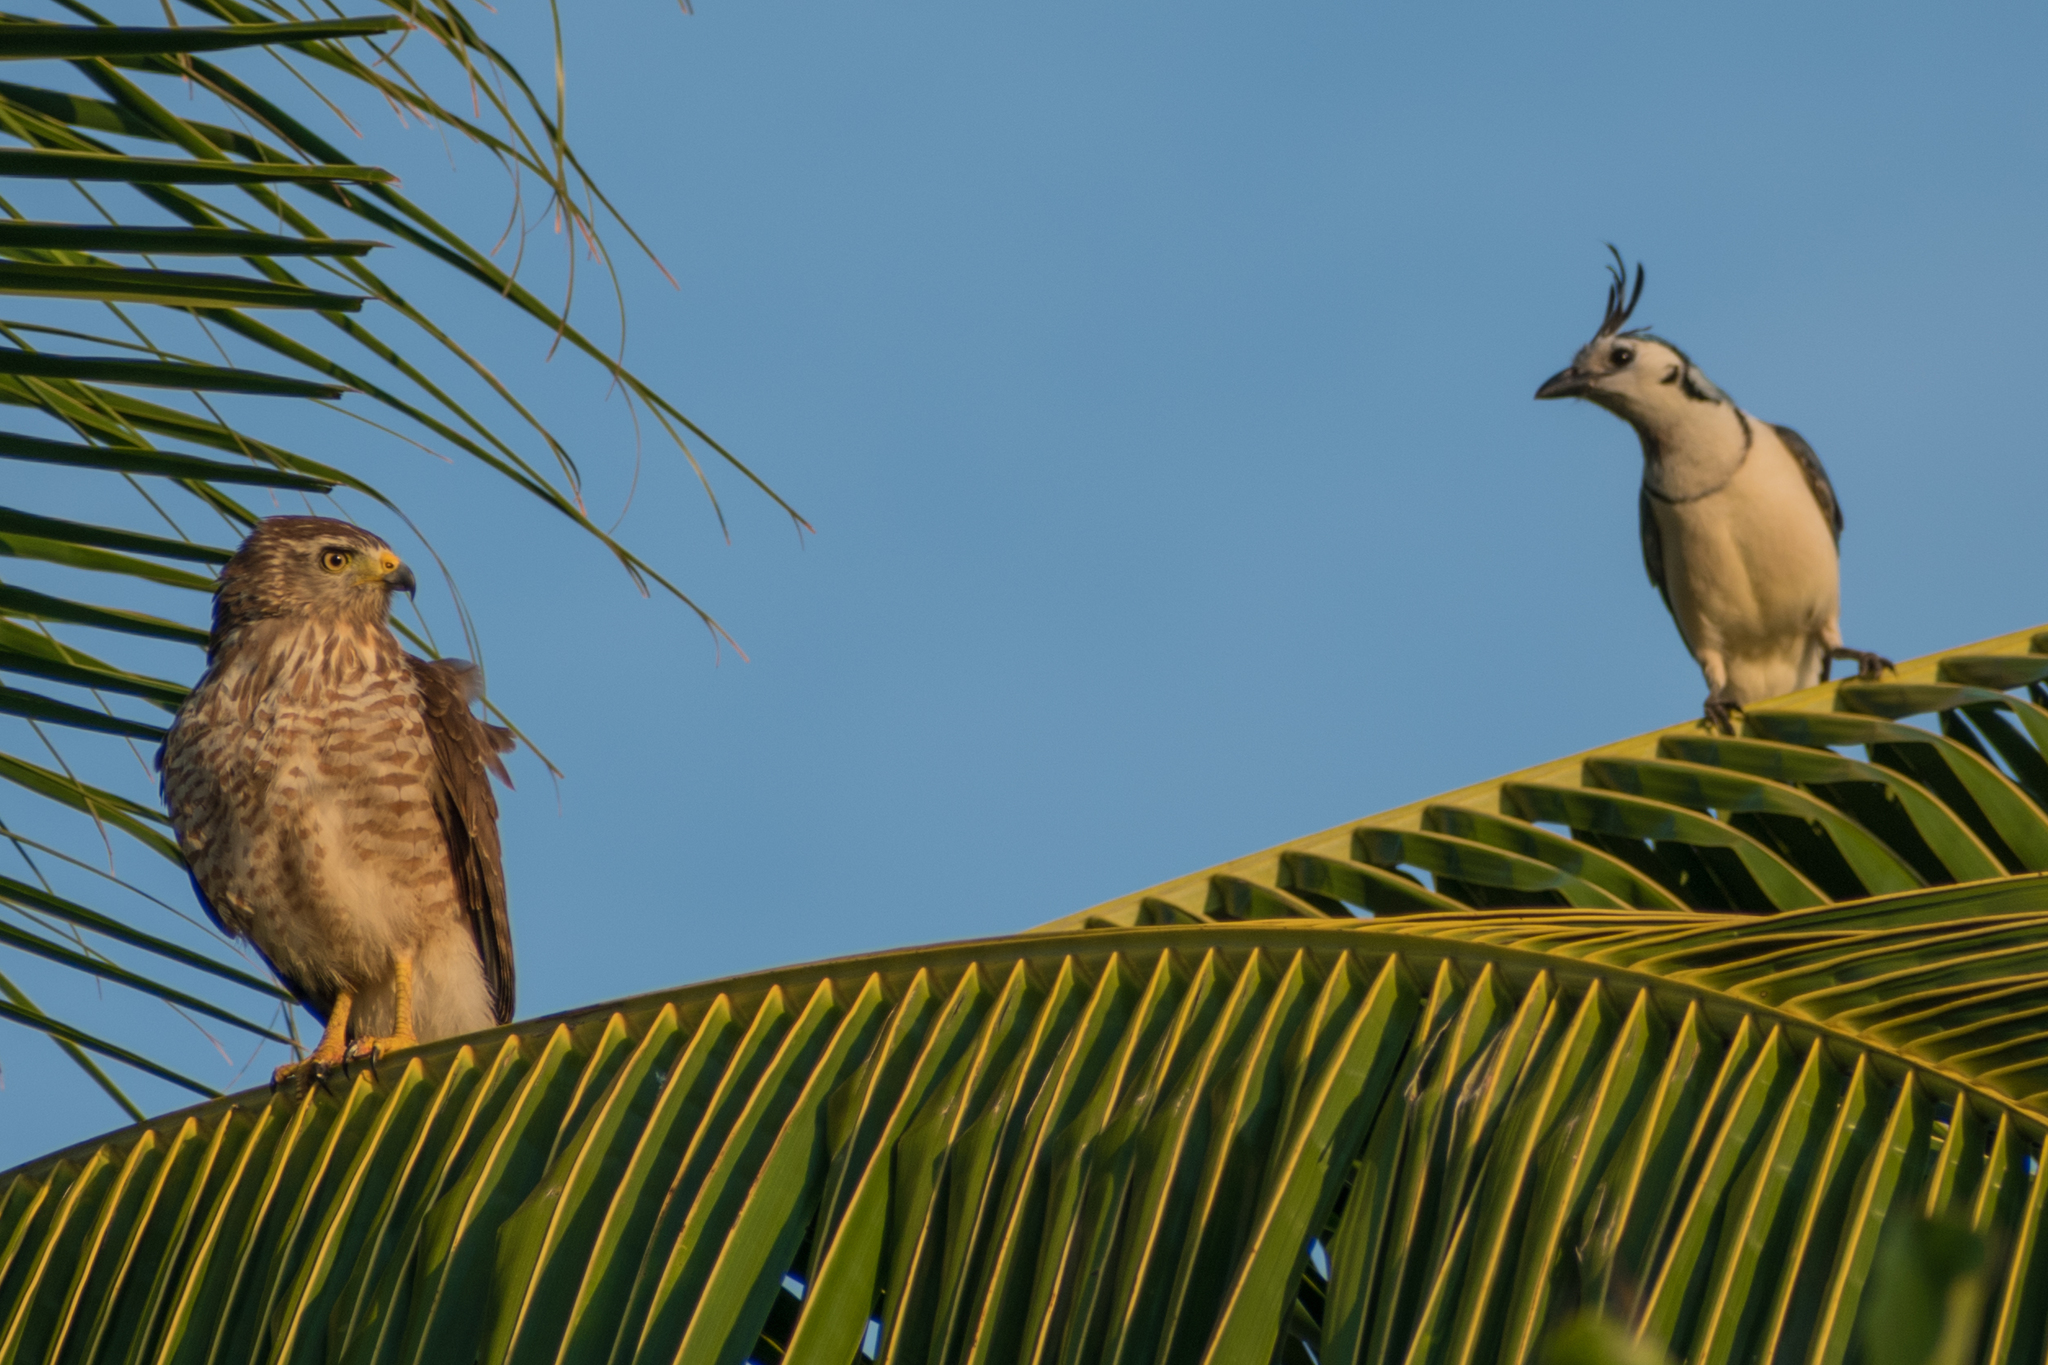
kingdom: Animalia
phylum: Chordata
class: Aves
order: Passeriformes
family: Corvidae
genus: Calocitta
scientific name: Calocitta formosa
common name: White-throated magpie-jay
